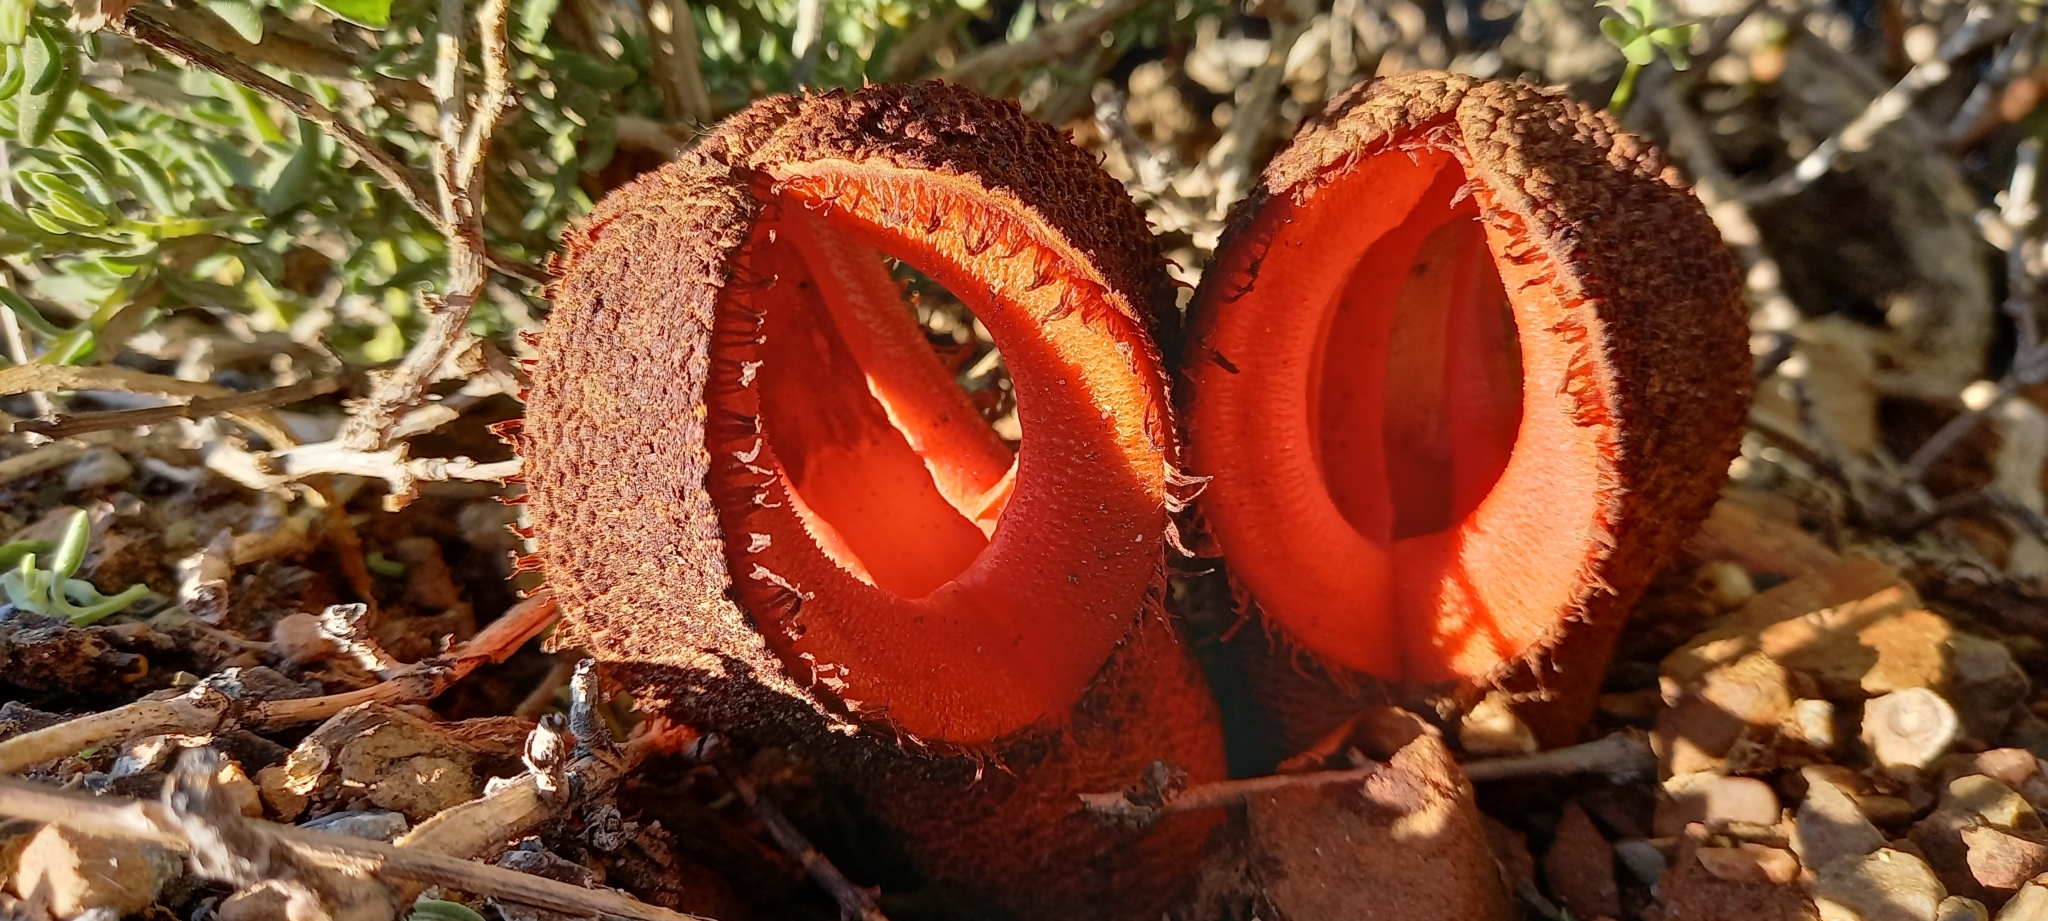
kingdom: Plantae
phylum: Tracheophyta
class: Magnoliopsida
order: Piperales
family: Hydnoraceae
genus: Hydnora
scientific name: Hydnora africana
